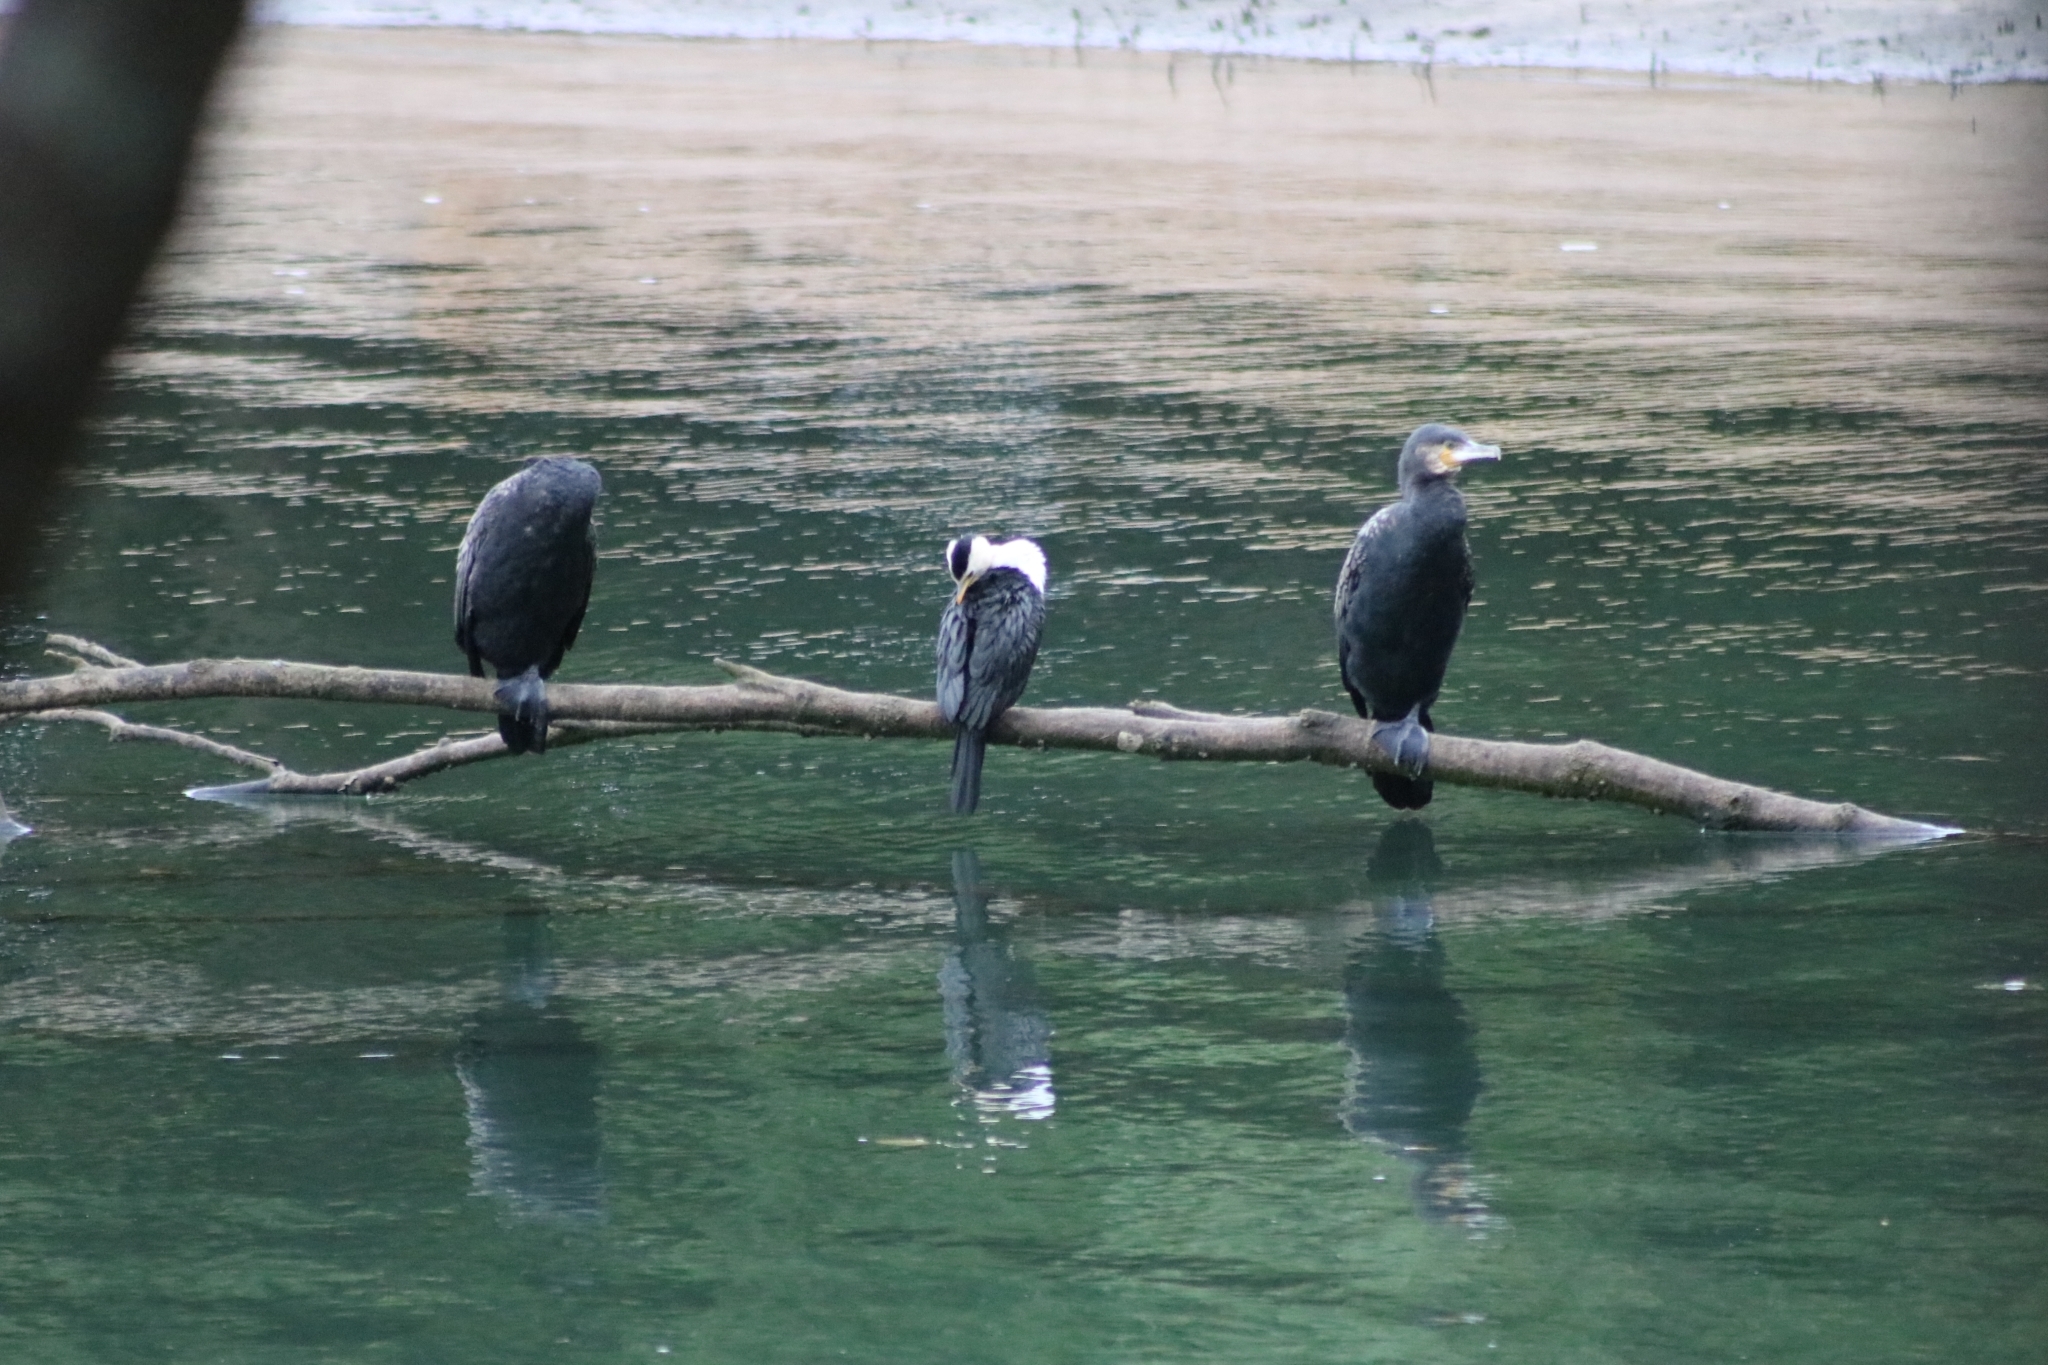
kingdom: Animalia
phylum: Chordata
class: Aves
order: Suliformes
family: Phalacrocoracidae
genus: Microcarbo
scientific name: Microcarbo melanoleucos
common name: Little pied cormorant
